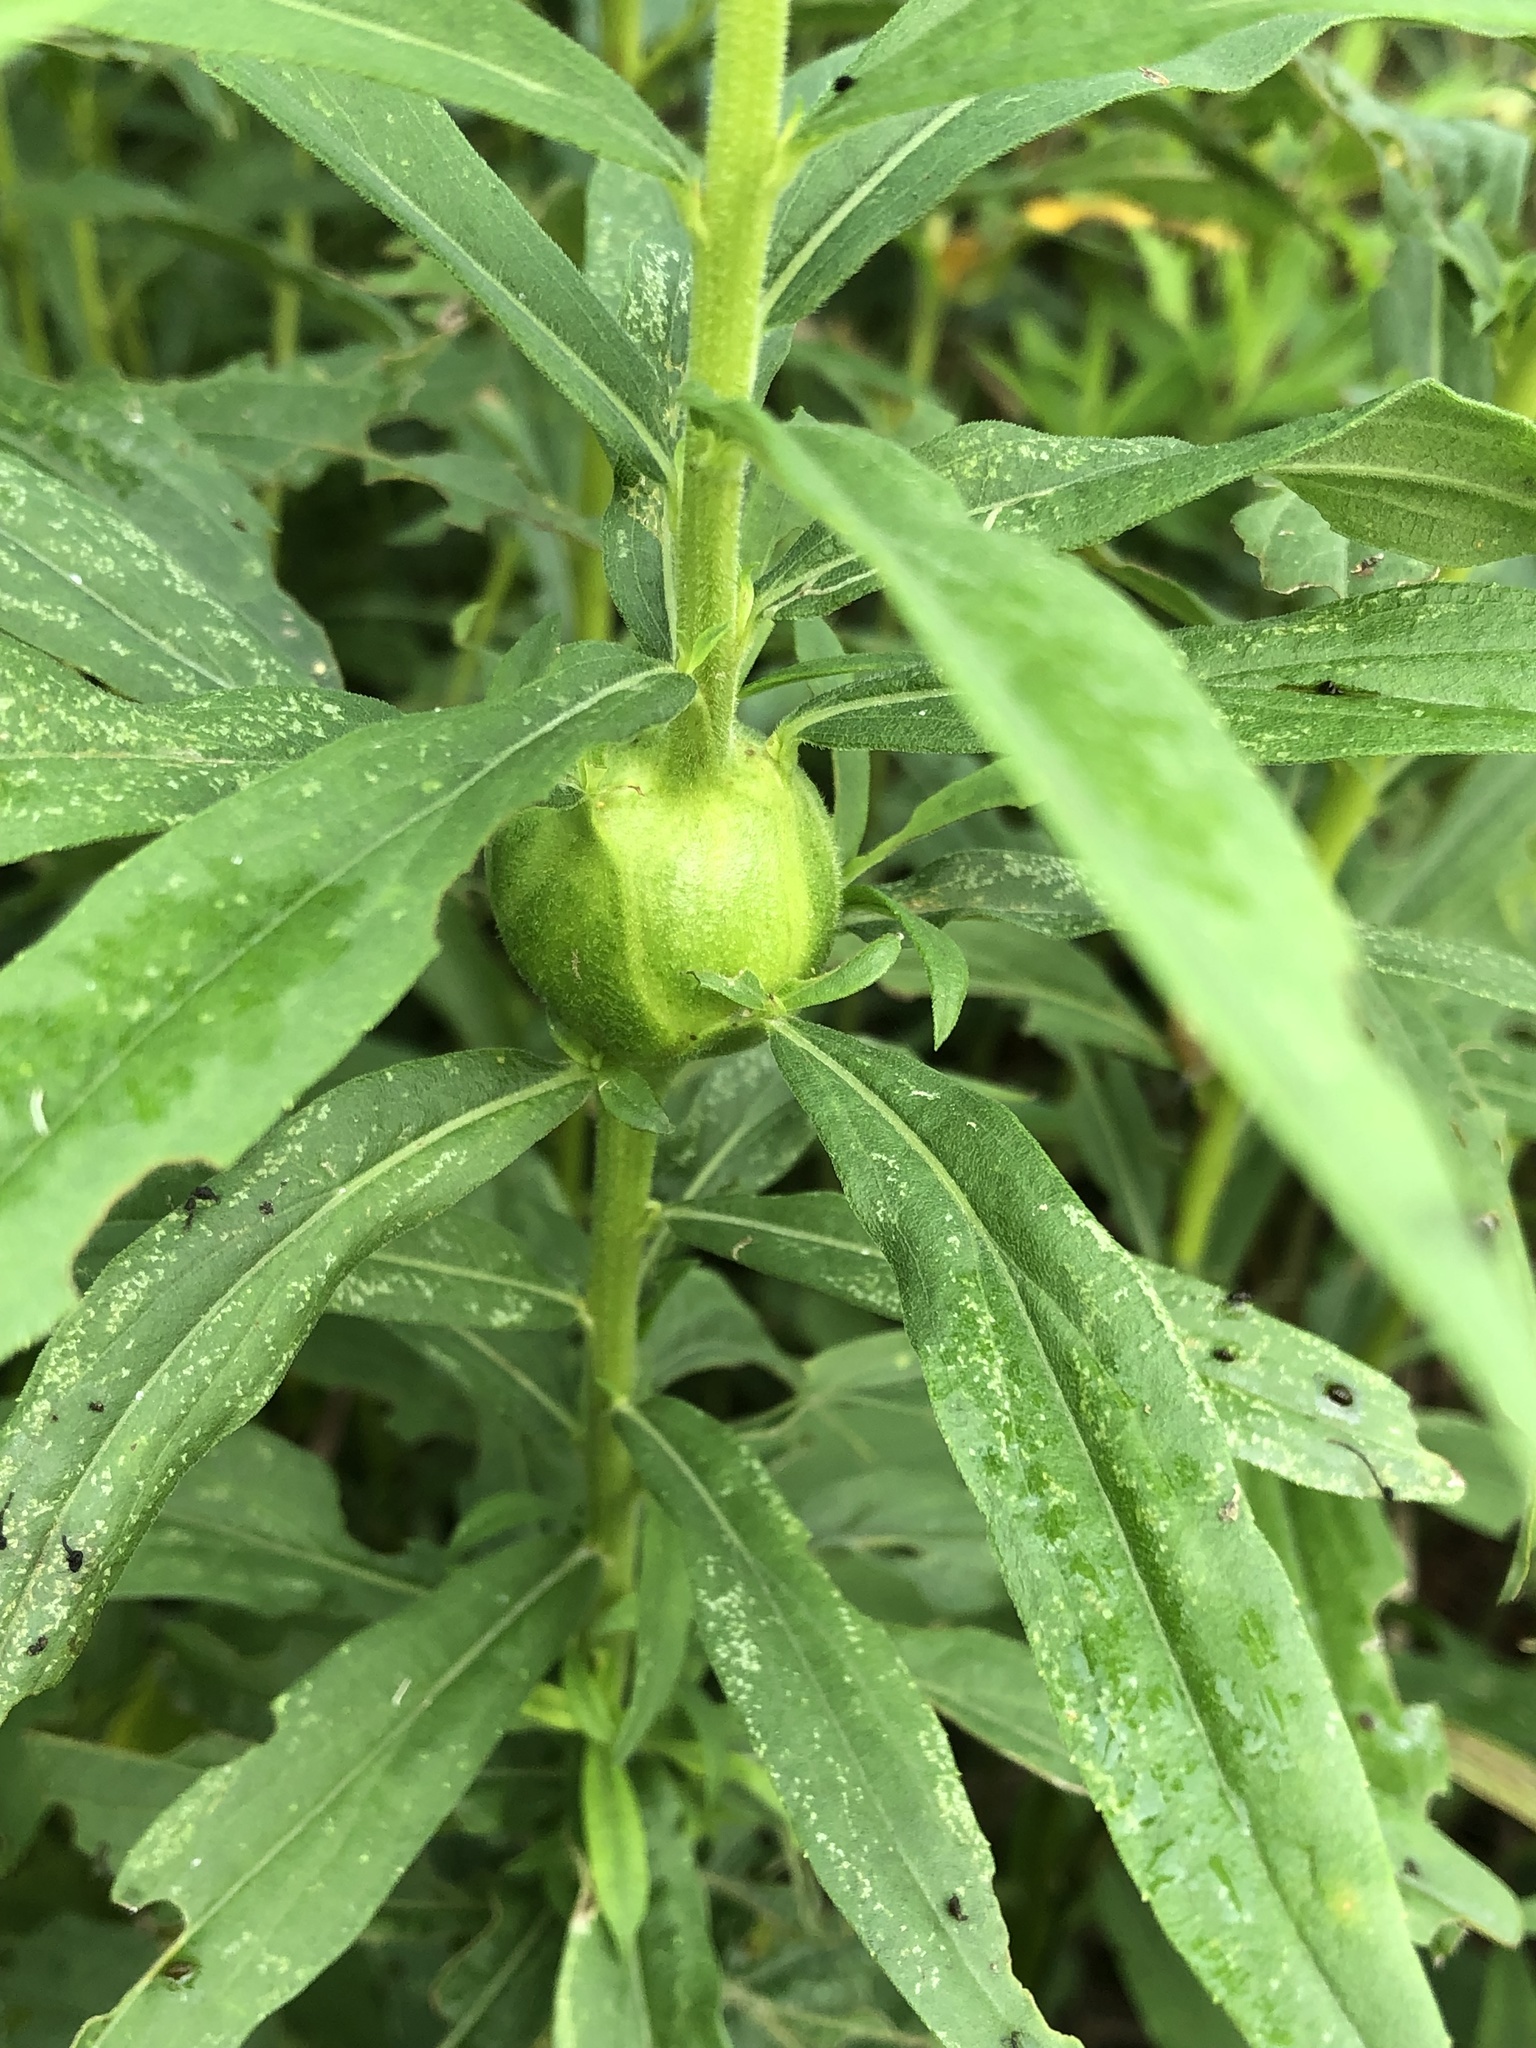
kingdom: Animalia
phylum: Arthropoda
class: Insecta
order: Diptera
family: Tephritidae
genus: Eurosta
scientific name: Eurosta solidaginis
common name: Goldenrod gall fly
